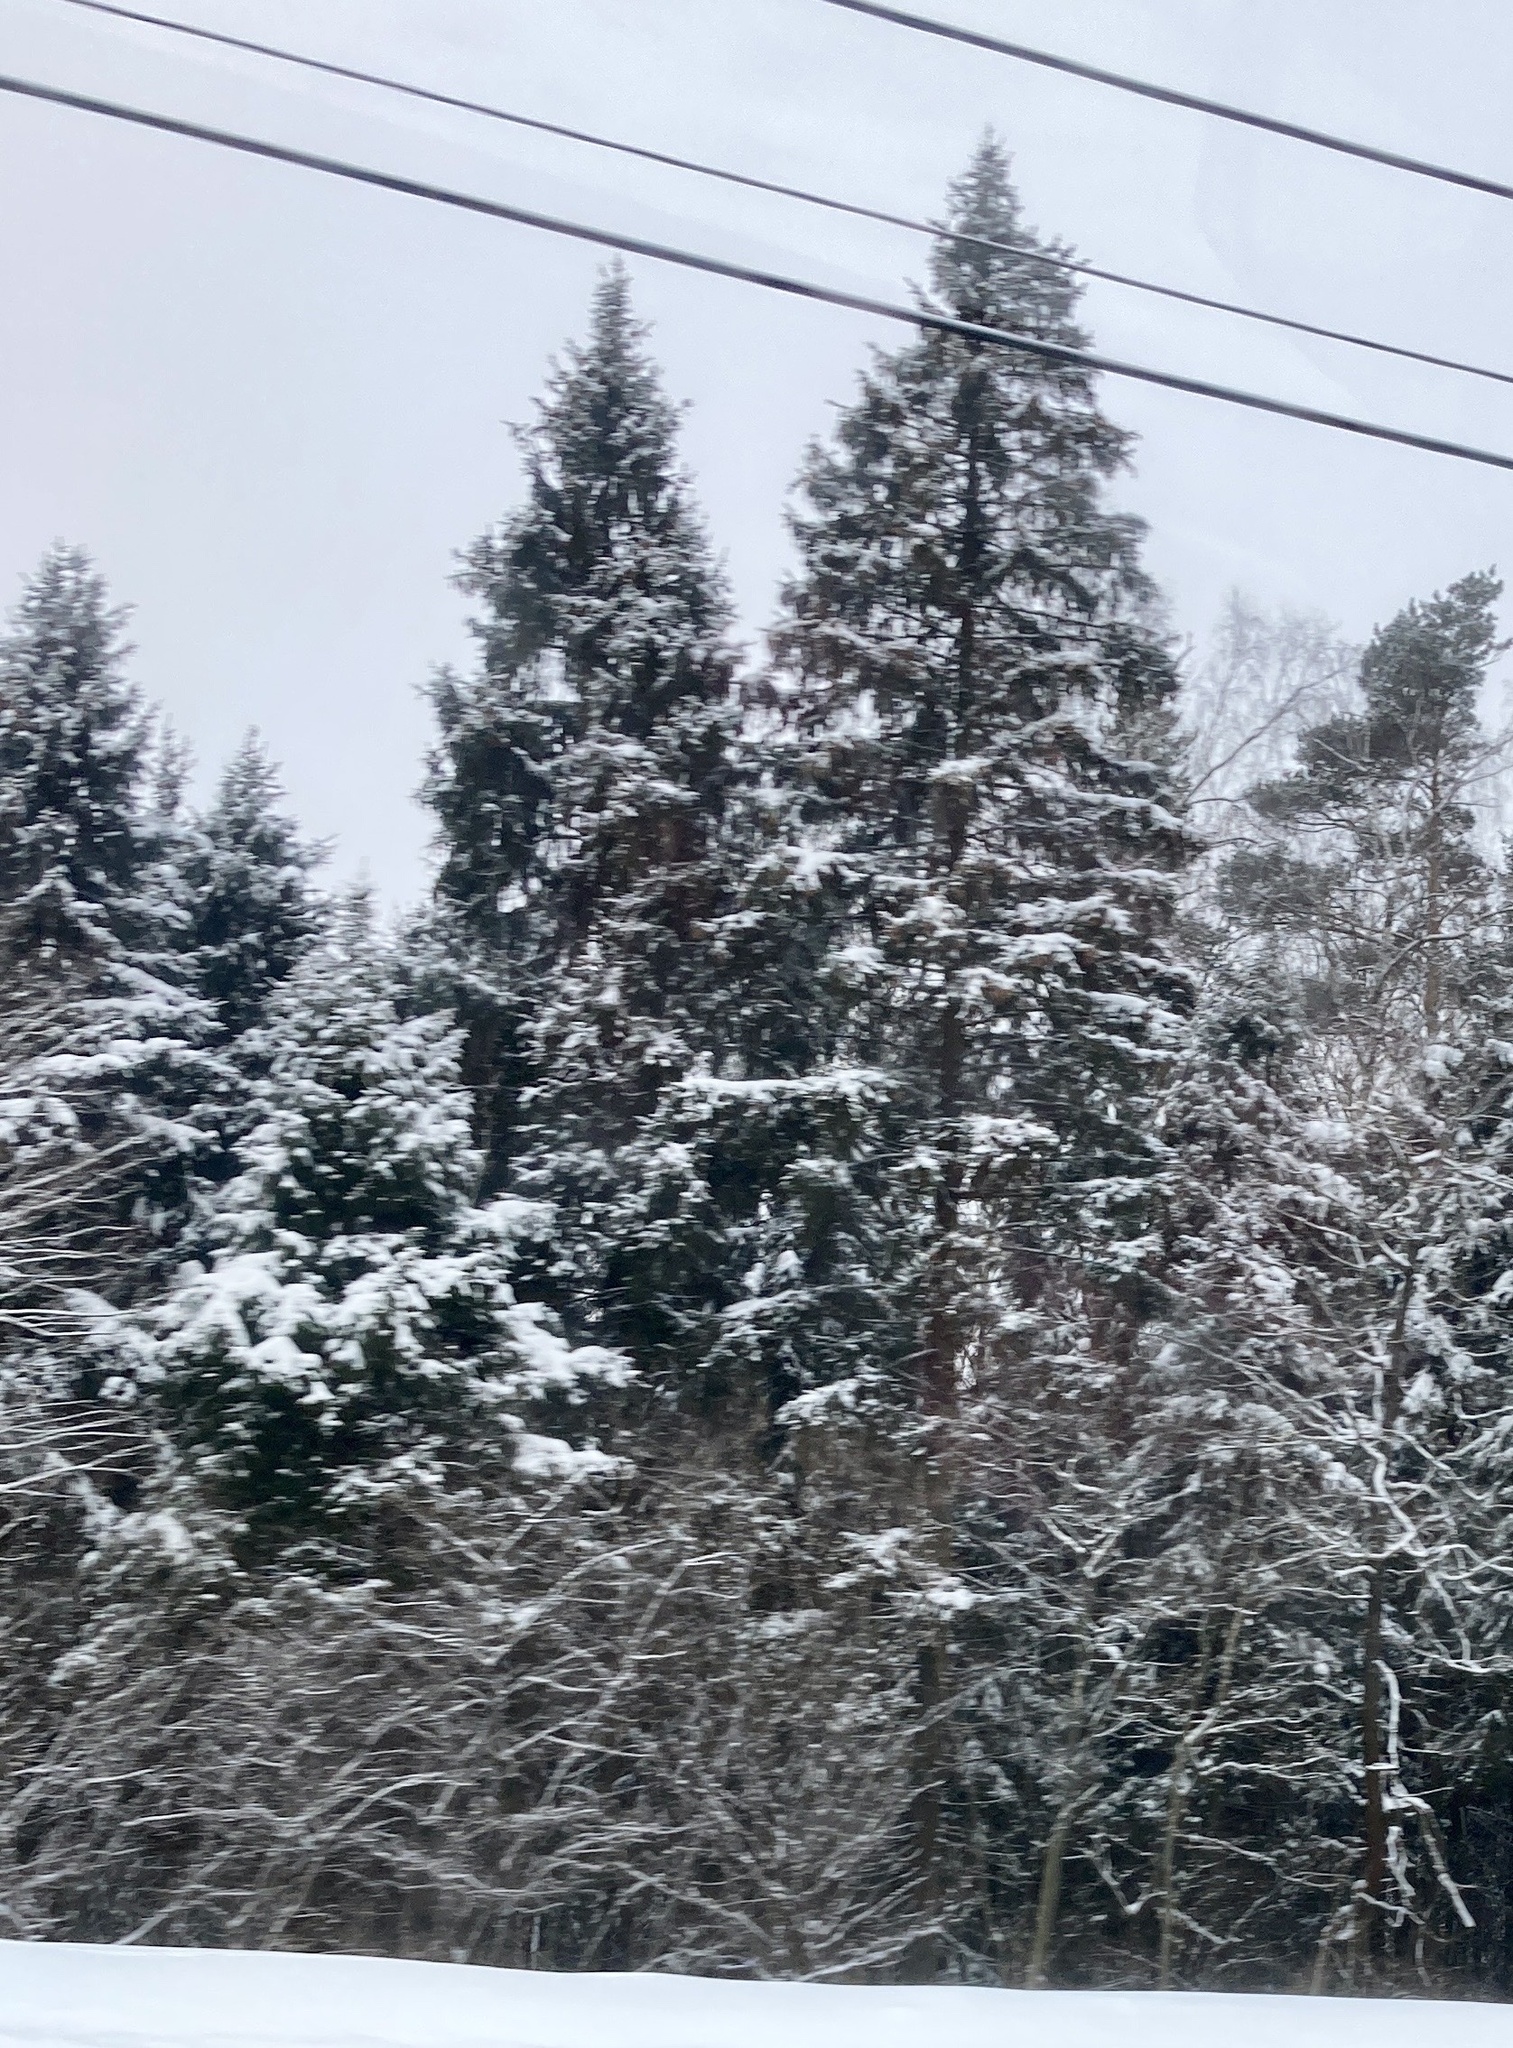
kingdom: Plantae
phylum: Tracheophyta
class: Pinopsida
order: Pinales
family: Pinaceae
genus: Picea
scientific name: Picea abies
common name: Norway spruce
